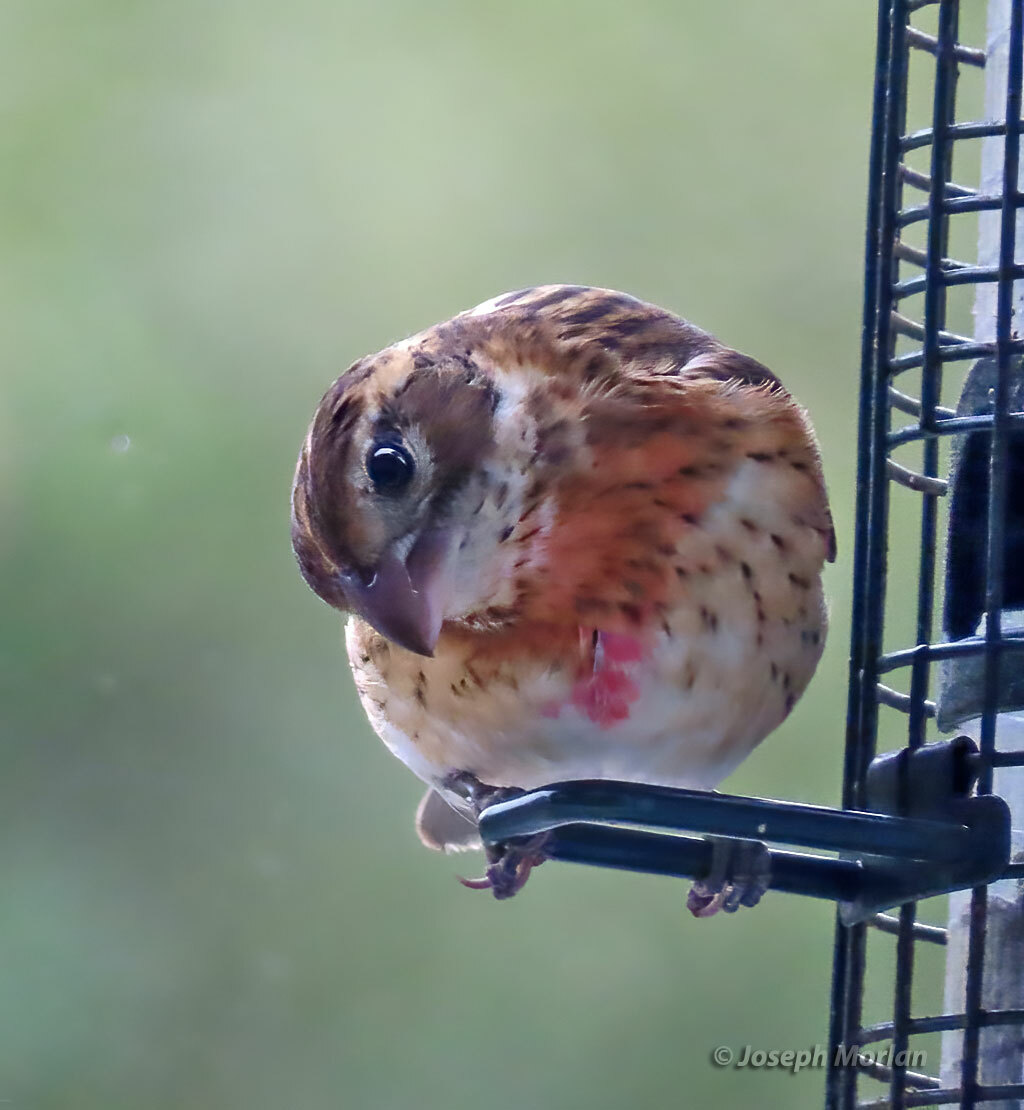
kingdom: Animalia
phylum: Chordata
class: Aves
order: Passeriformes
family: Cardinalidae
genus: Pheucticus
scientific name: Pheucticus ludovicianus
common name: Rose-breasted grosbeak
